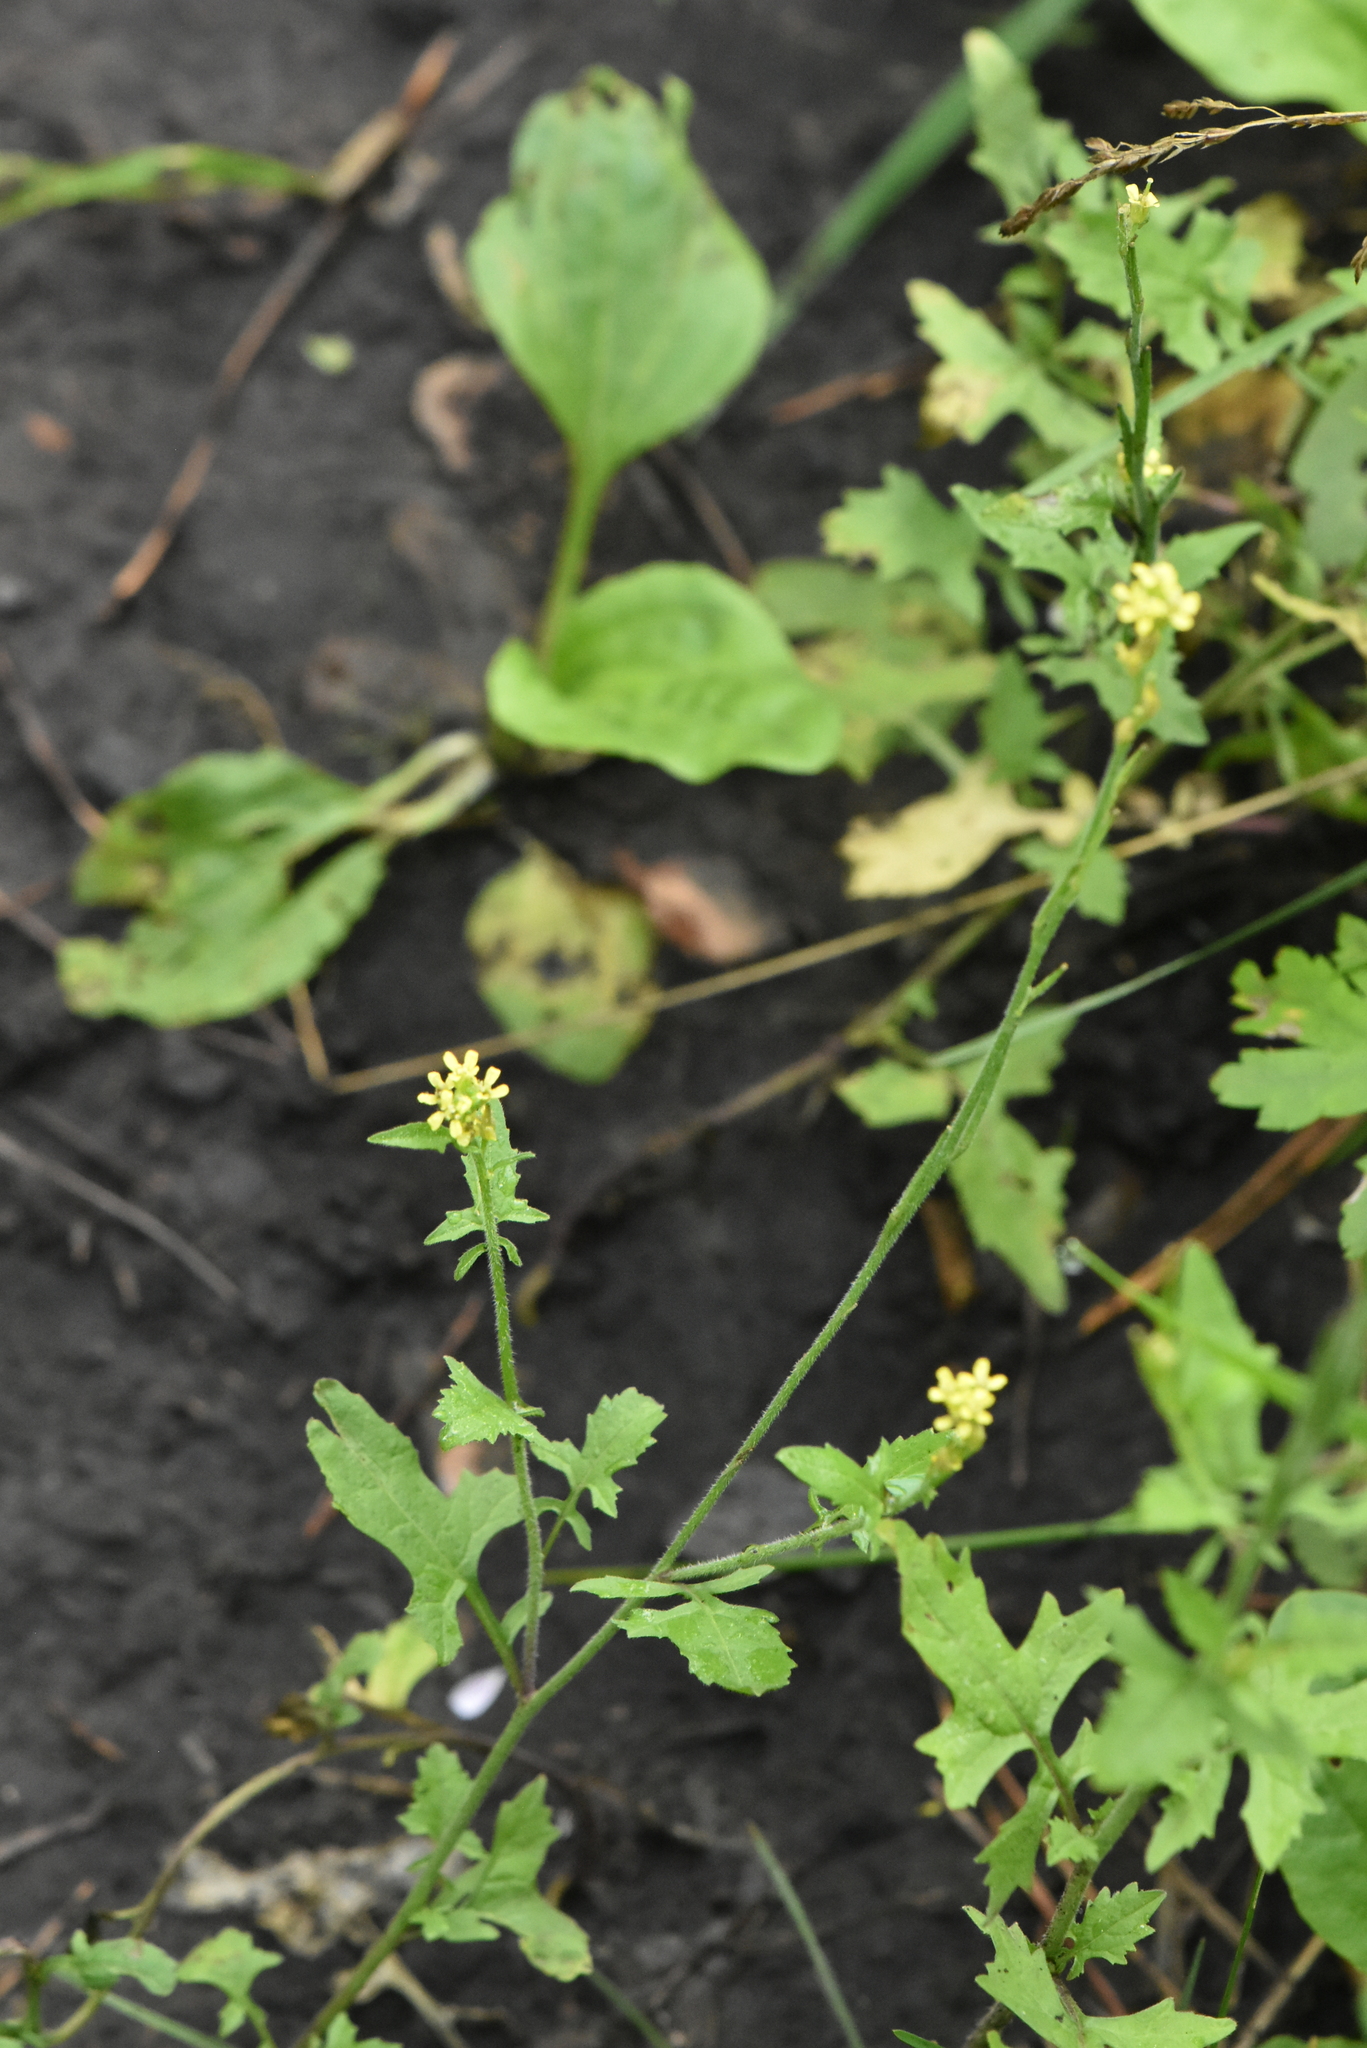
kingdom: Plantae
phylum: Tracheophyta
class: Magnoliopsida
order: Brassicales
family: Brassicaceae
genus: Sisymbrium
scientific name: Sisymbrium officinale
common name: Hedge mustard
